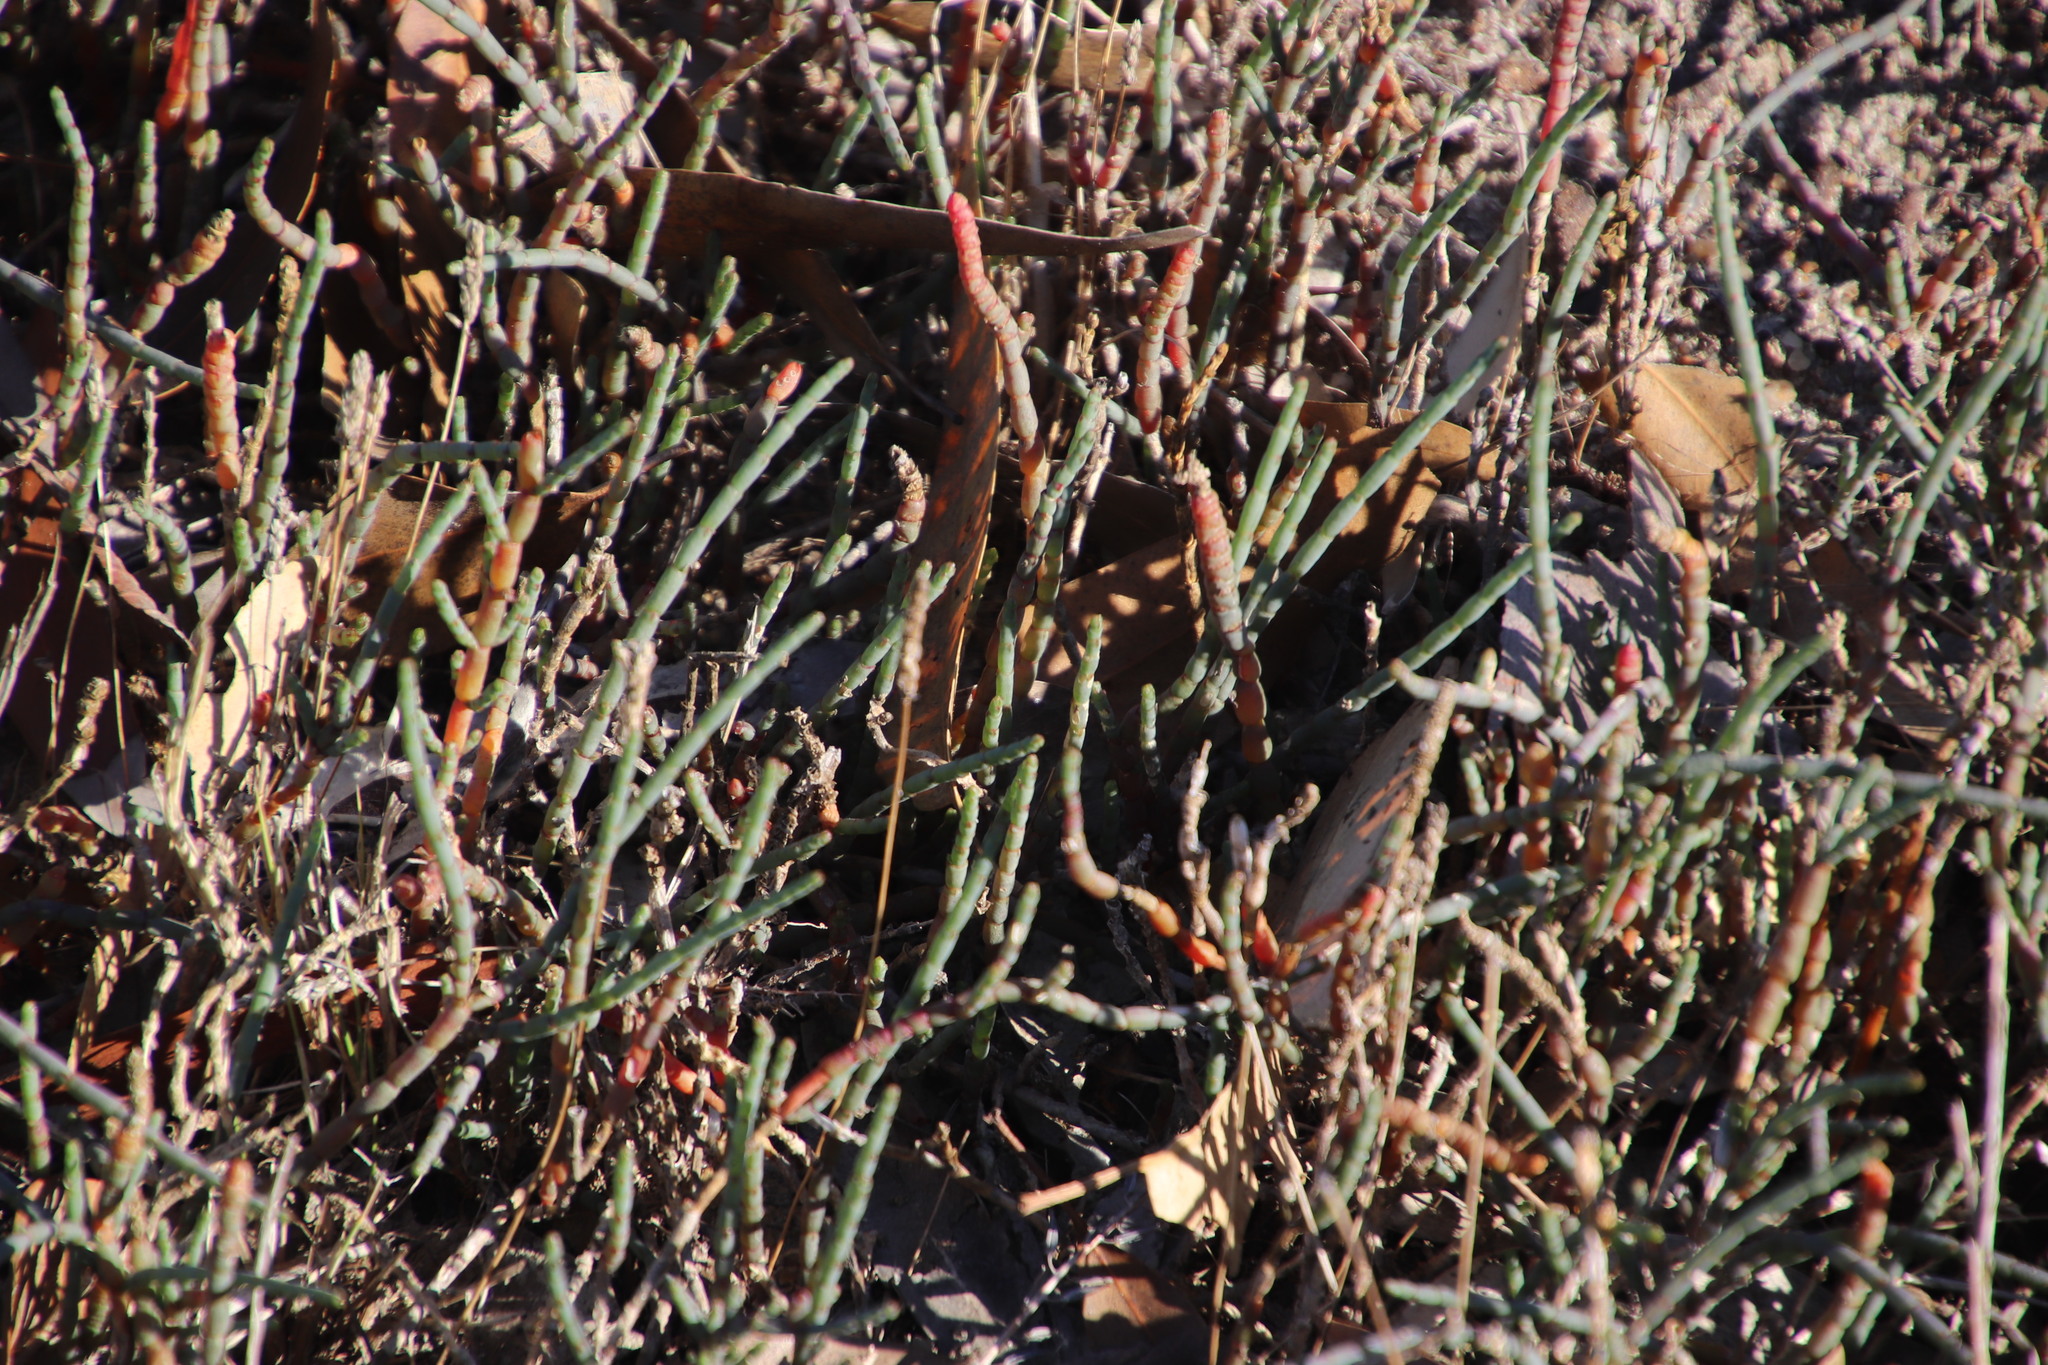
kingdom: Plantae
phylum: Tracheophyta
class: Magnoliopsida
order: Caryophyllales
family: Amaranthaceae
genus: Salicornia
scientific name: Salicornia capensis
